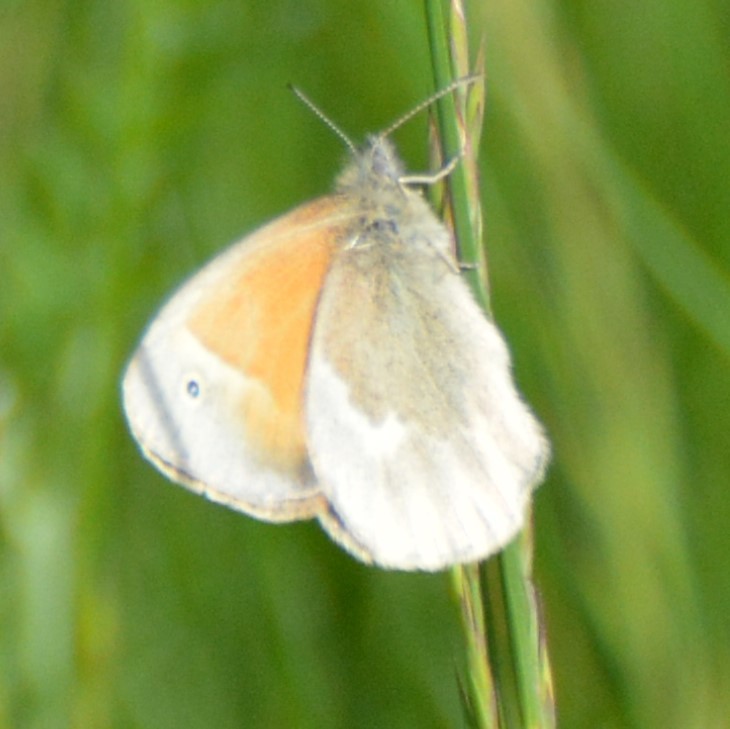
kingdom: Animalia
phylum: Arthropoda
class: Insecta
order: Lepidoptera
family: Nymphalidae
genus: Coenonympha
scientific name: Coenonympha california
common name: Common ringlet
